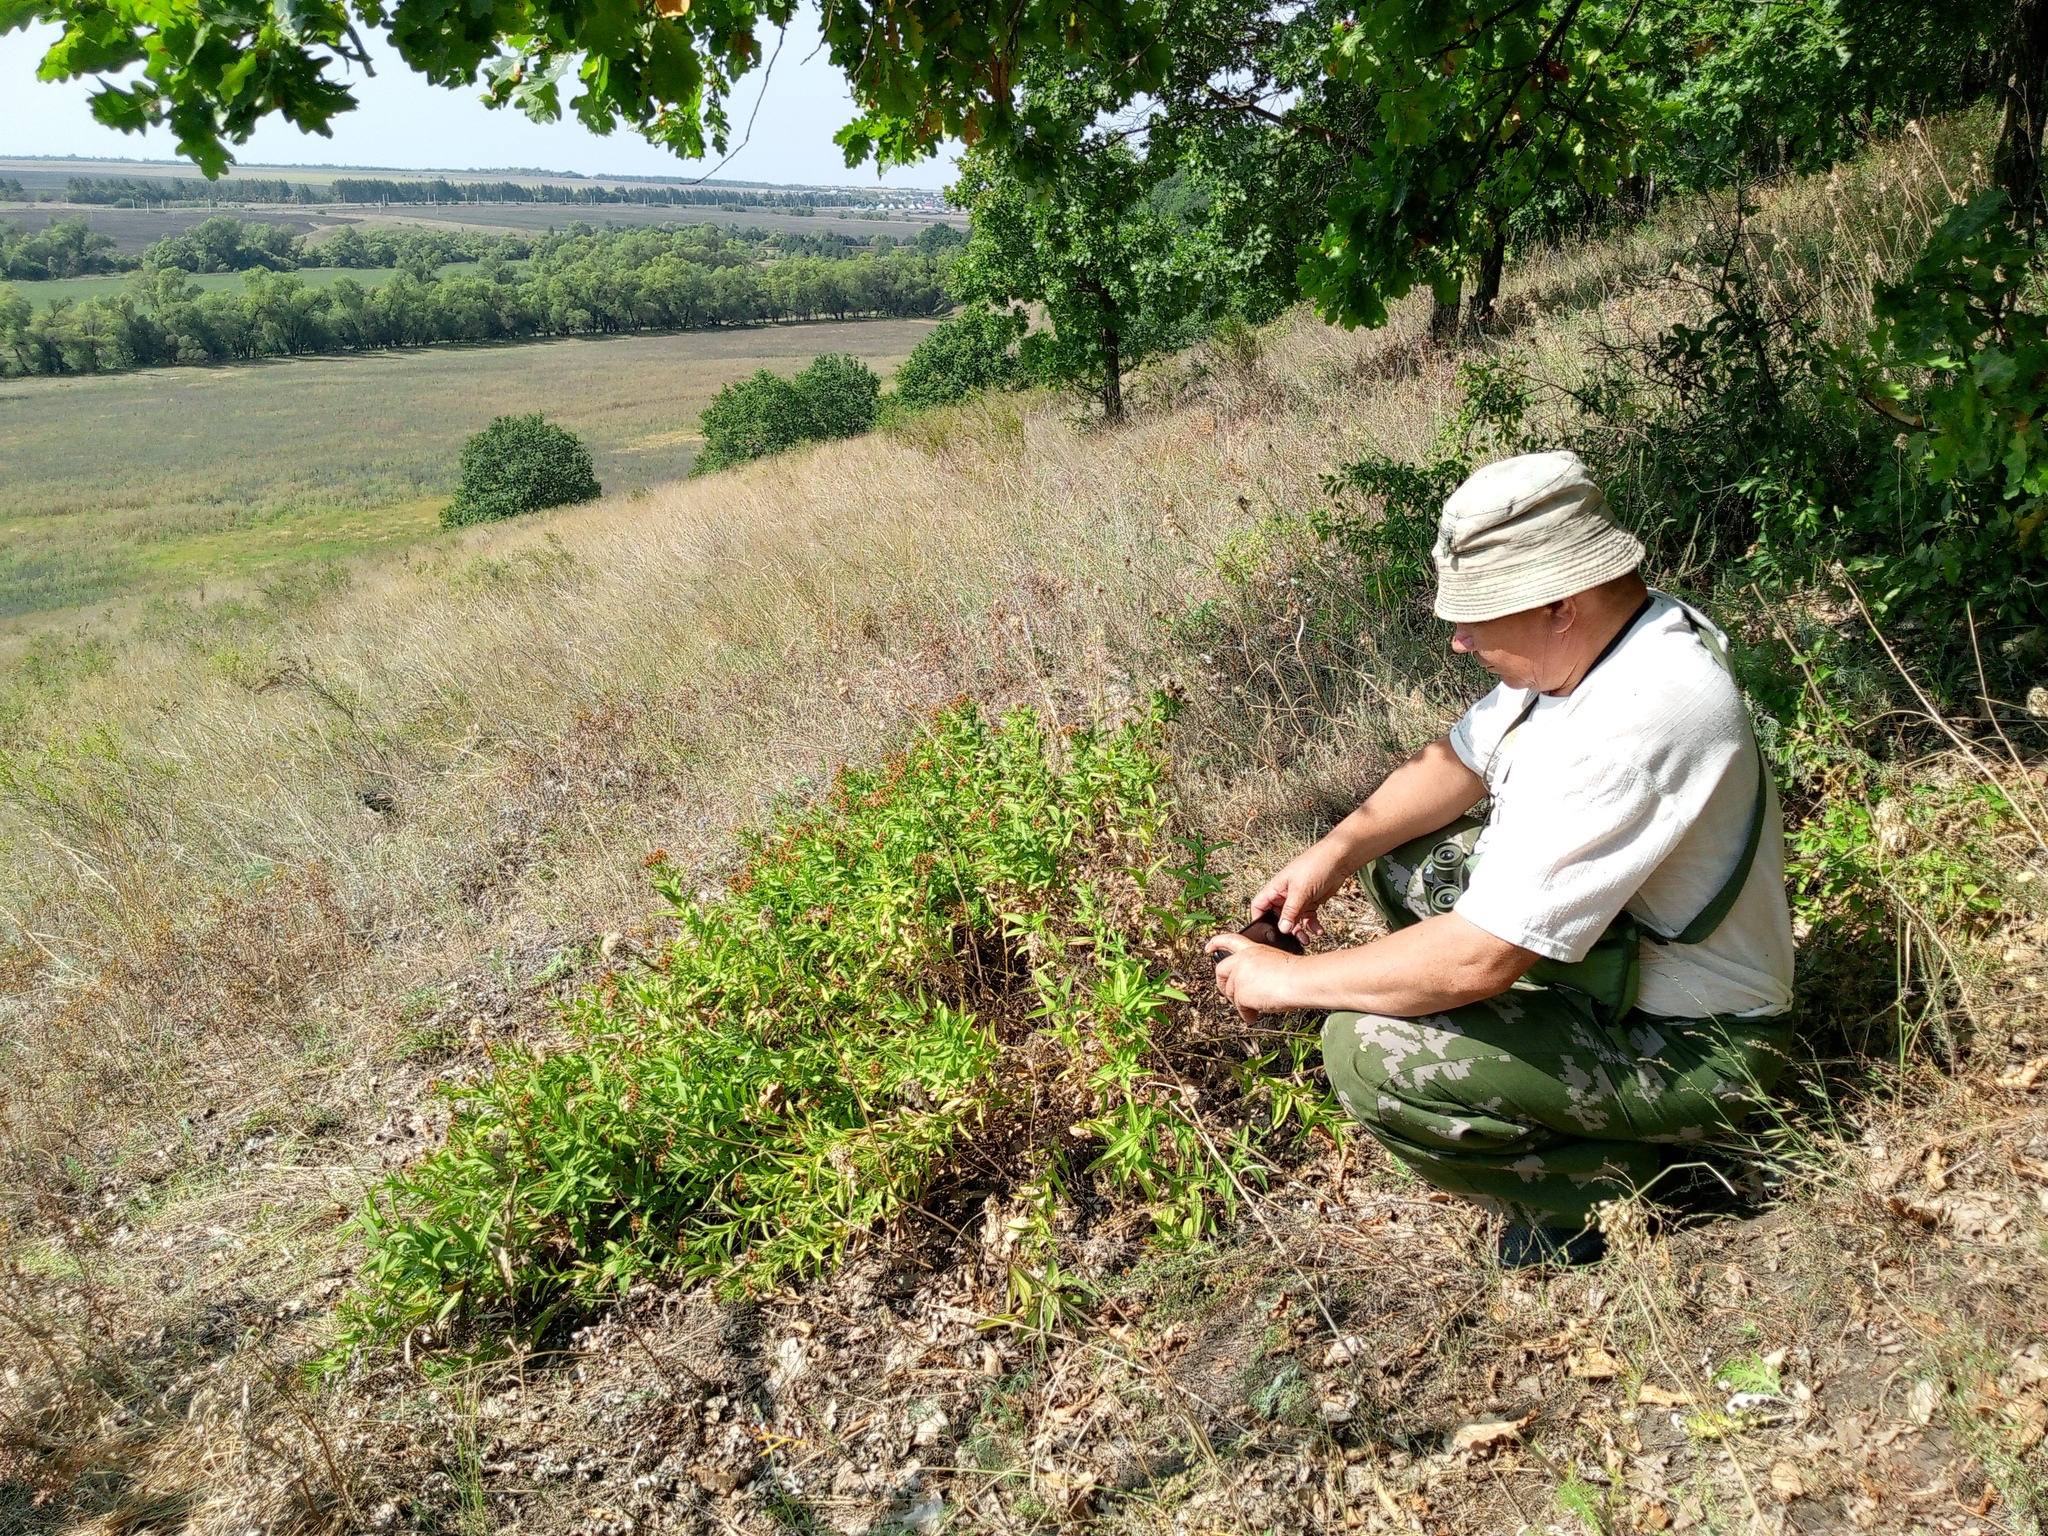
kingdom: Plantae
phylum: Tracheophyta
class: Magnoliopsida
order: Asterales
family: Asteraceae
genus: Pentanema
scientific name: Pentanema germanicum
